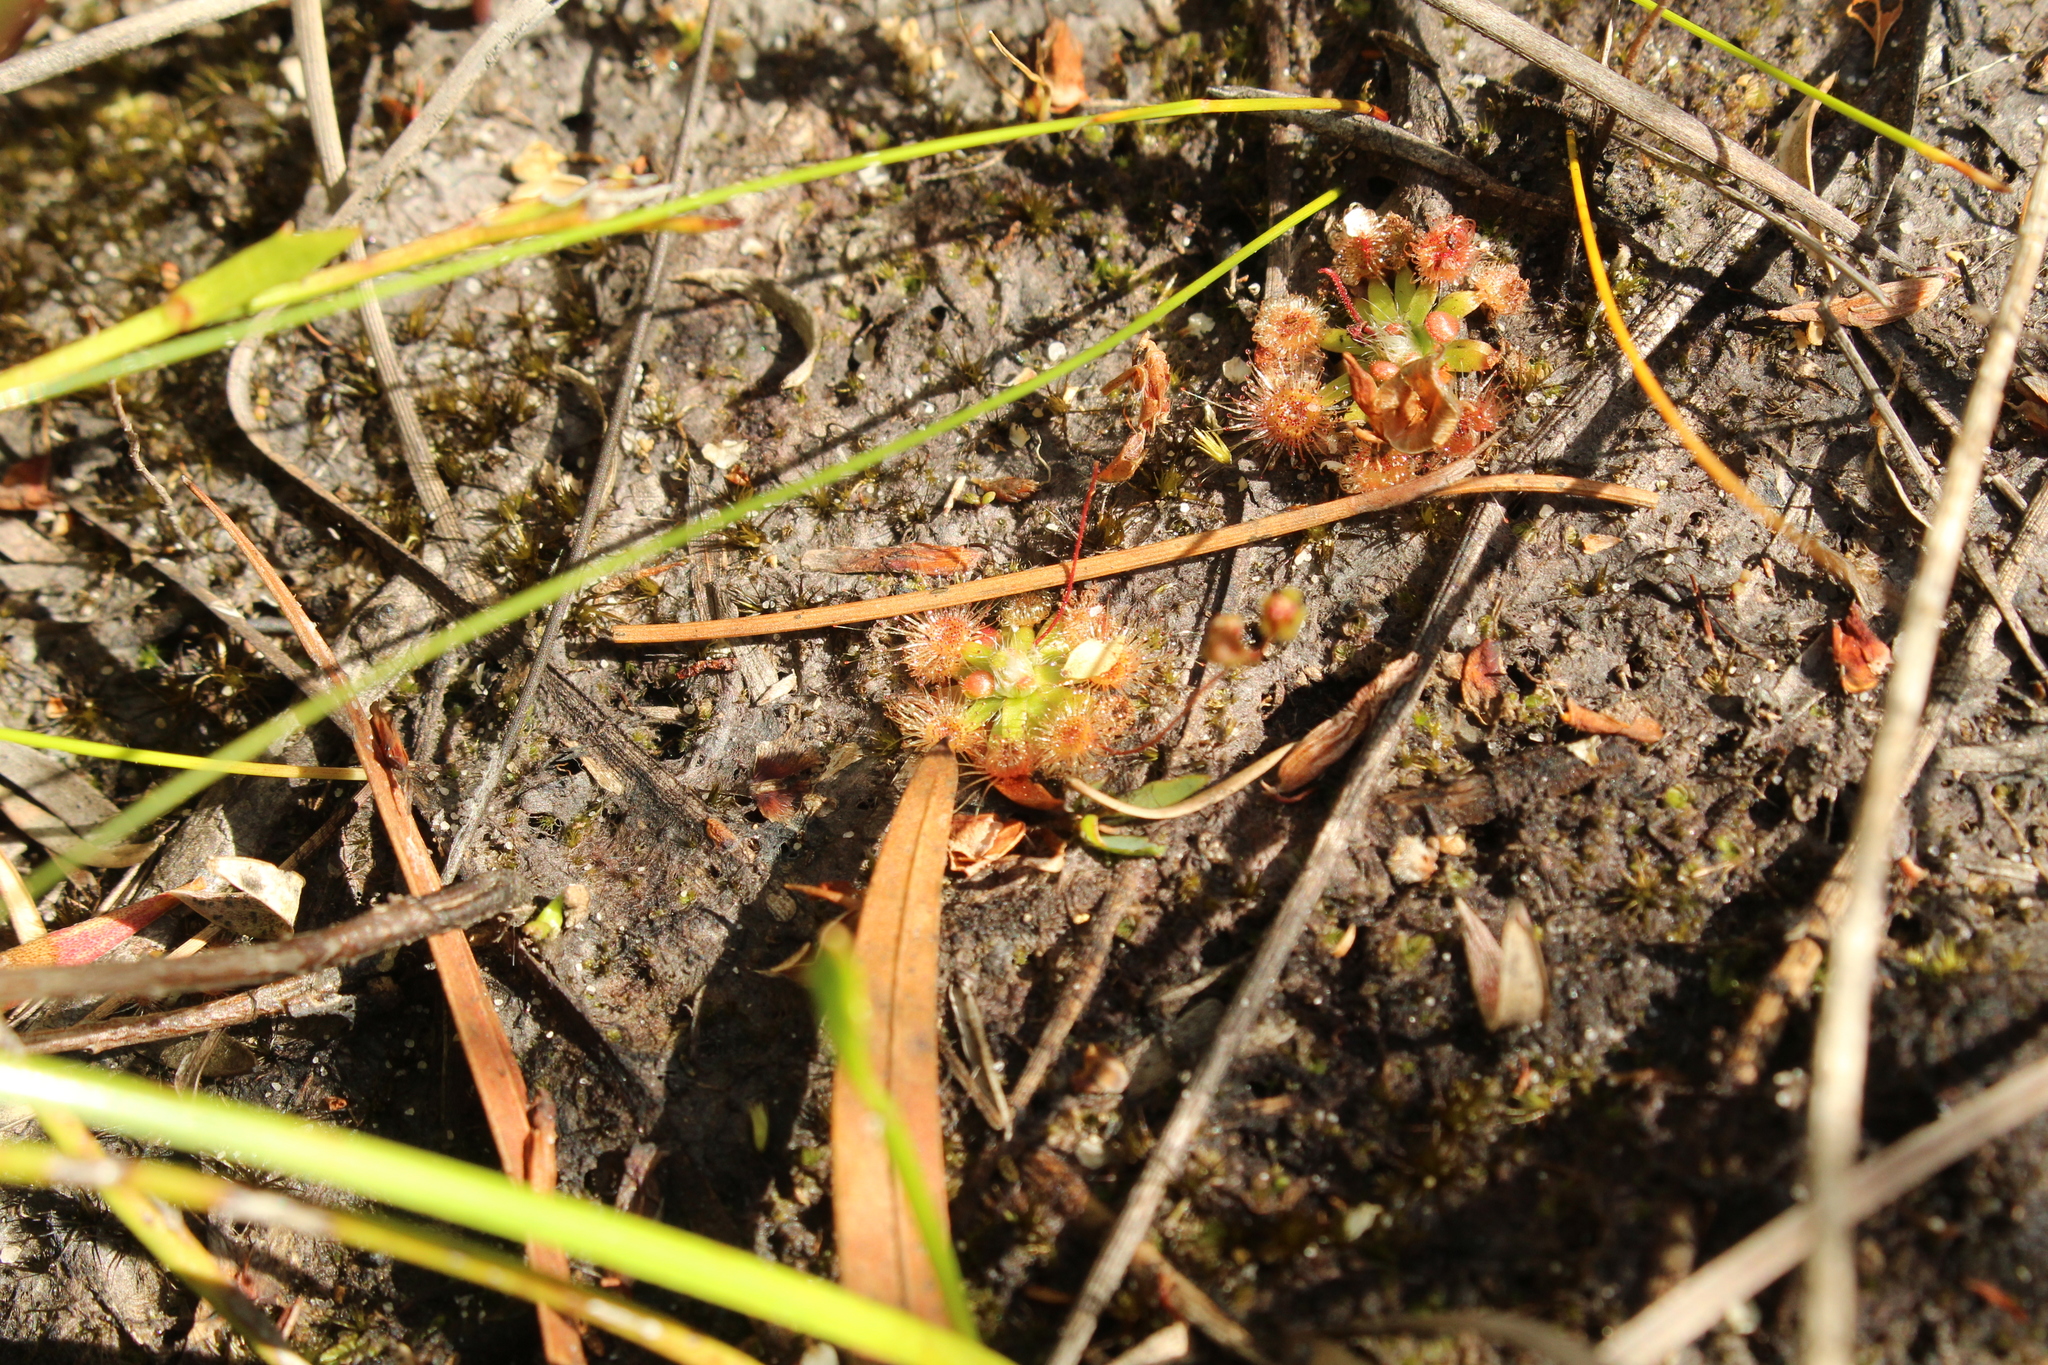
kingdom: Plantae
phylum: Tracheophyta
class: Magnoliopsida
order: Caryophyllales
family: Droseraceae
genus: Drosera
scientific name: Drosera pulchella
